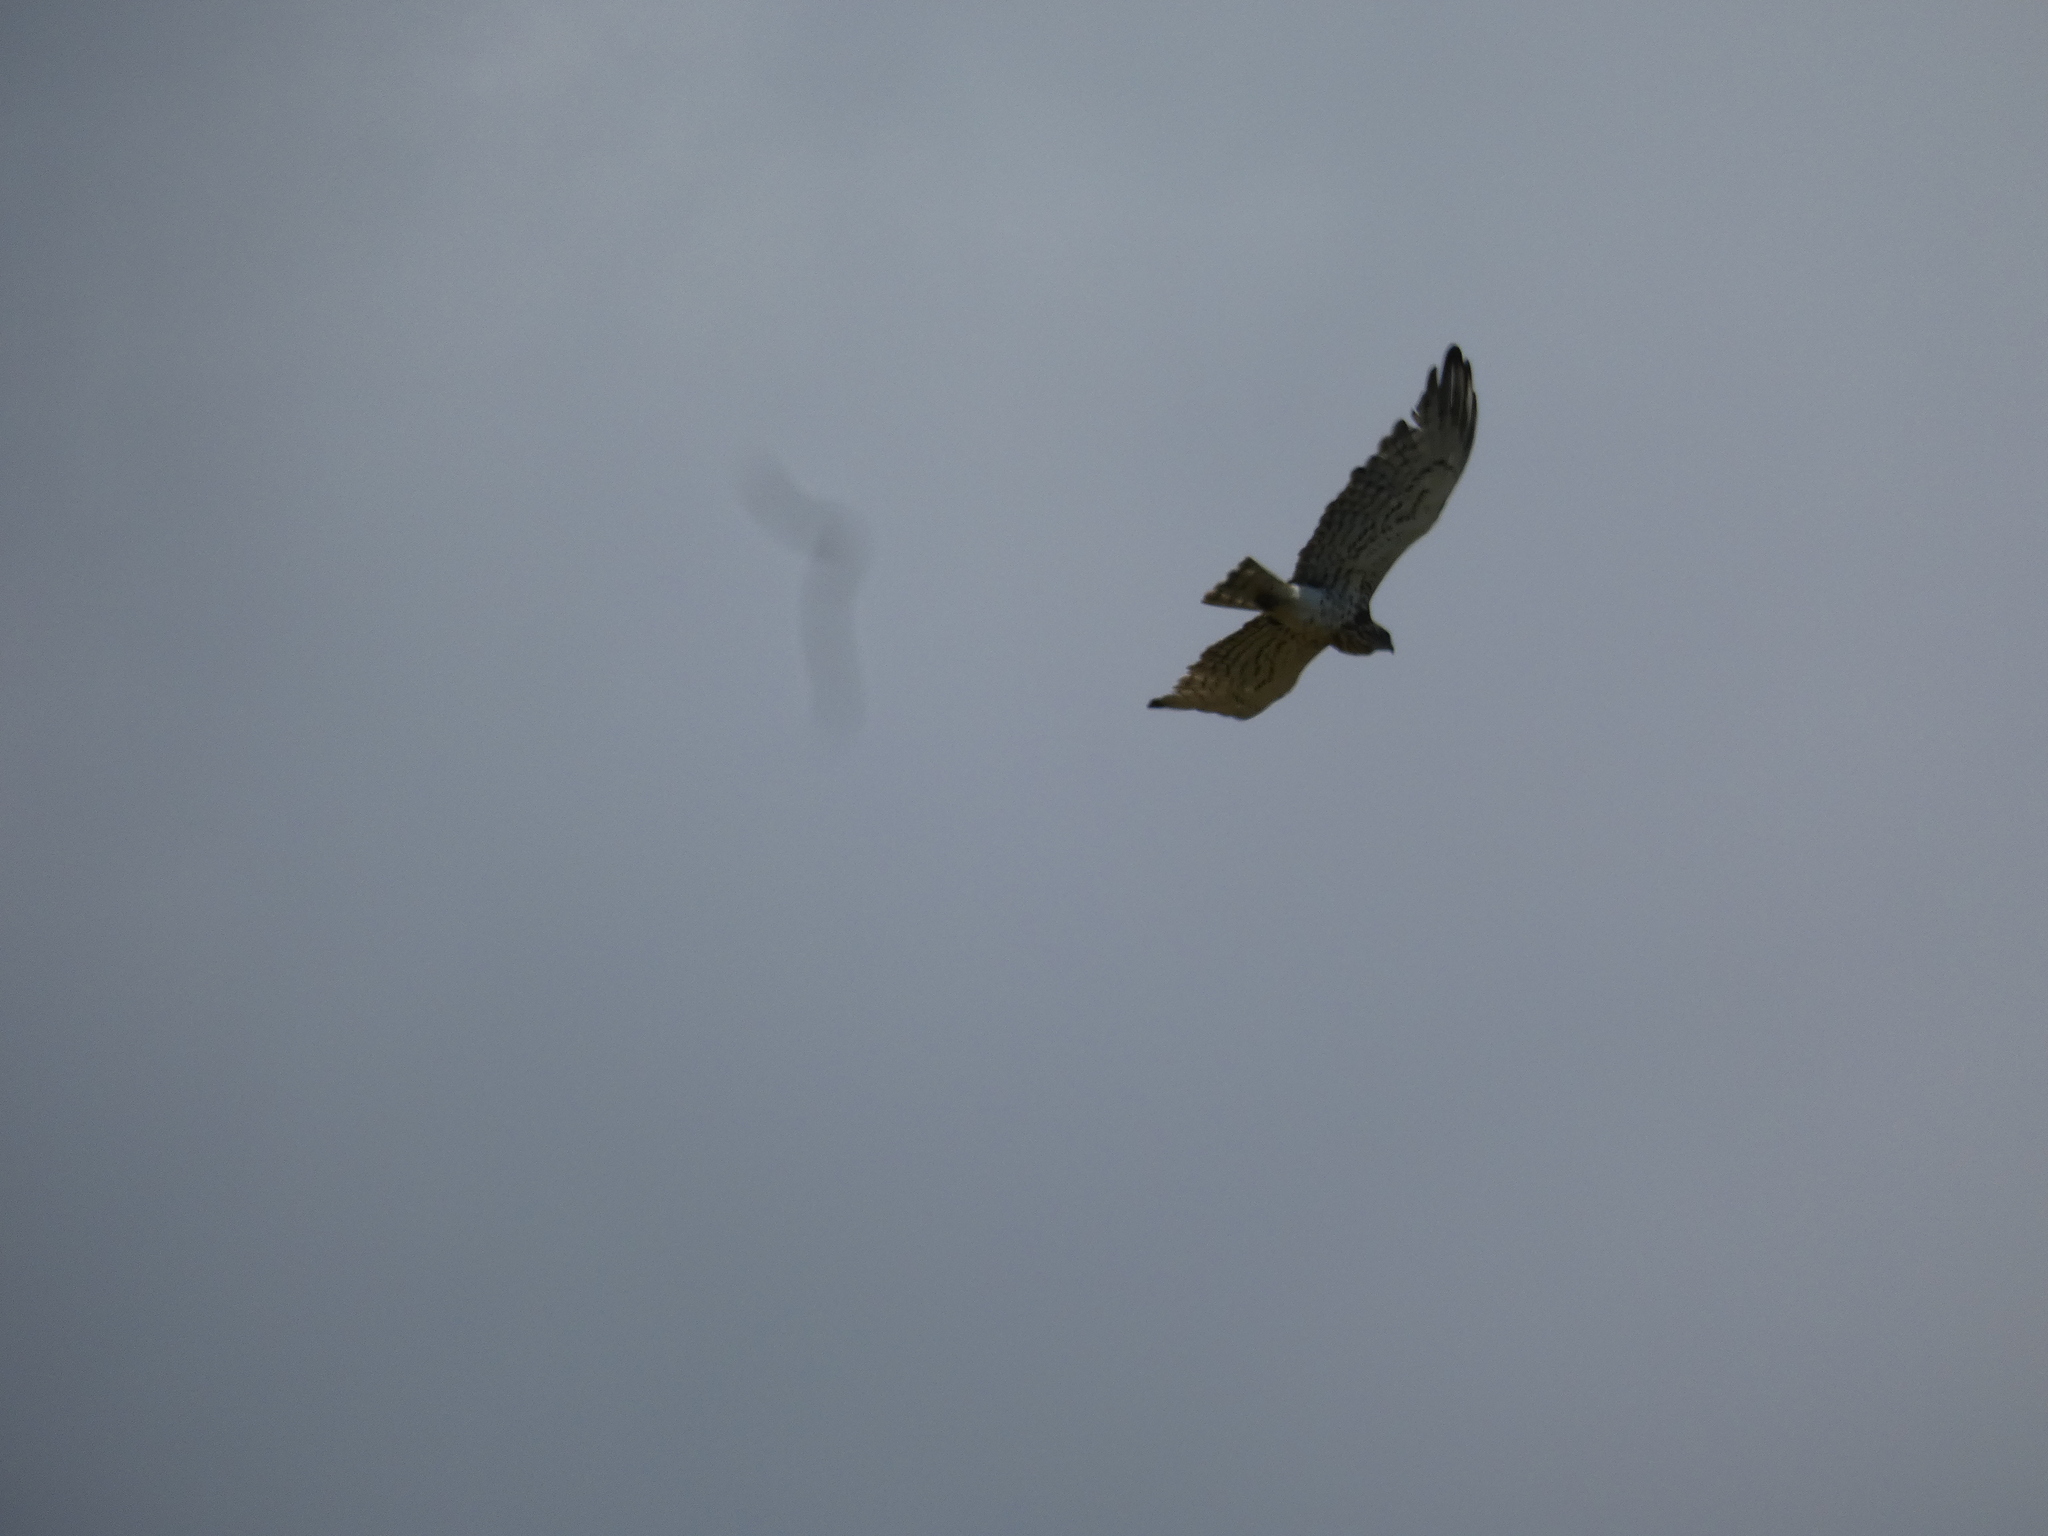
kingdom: Animalia
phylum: Chordata
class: Aves
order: Accipitriformes
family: Accipitridae
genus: Circaetus
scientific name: Circaetus gallicus
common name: Short-toed snake eagle
